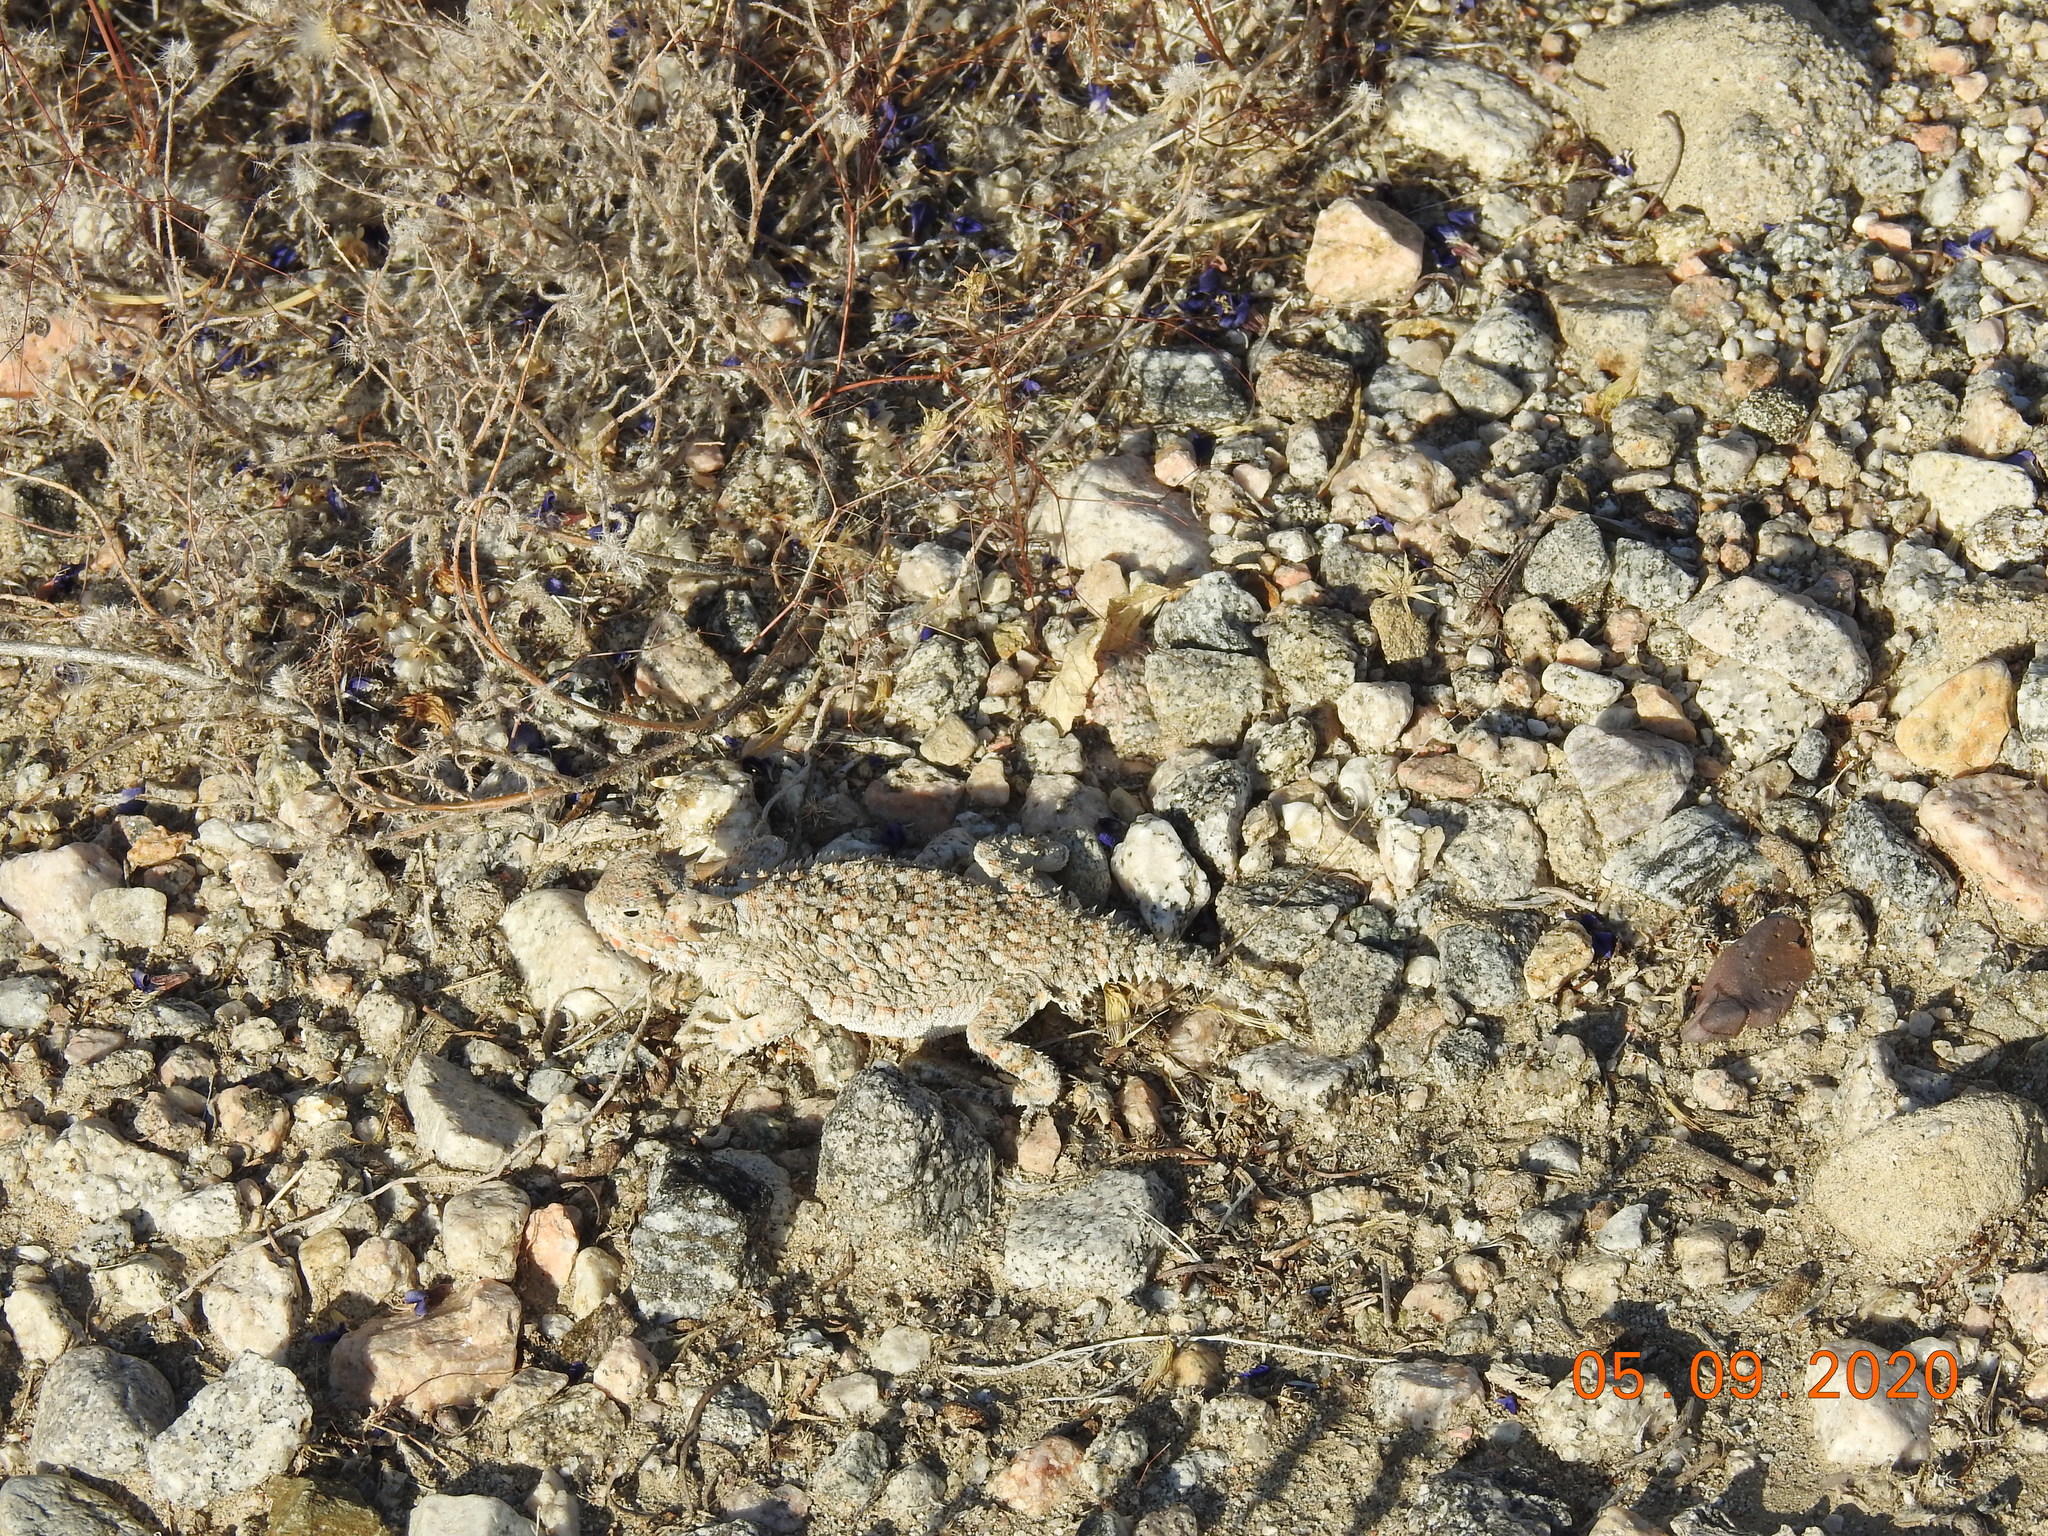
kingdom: Animalia
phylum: Chordata
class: Squamata
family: Phrynosomatidae
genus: Phrynosoma
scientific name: Phrynosoma platyrhinos
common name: Desert horned lizard
